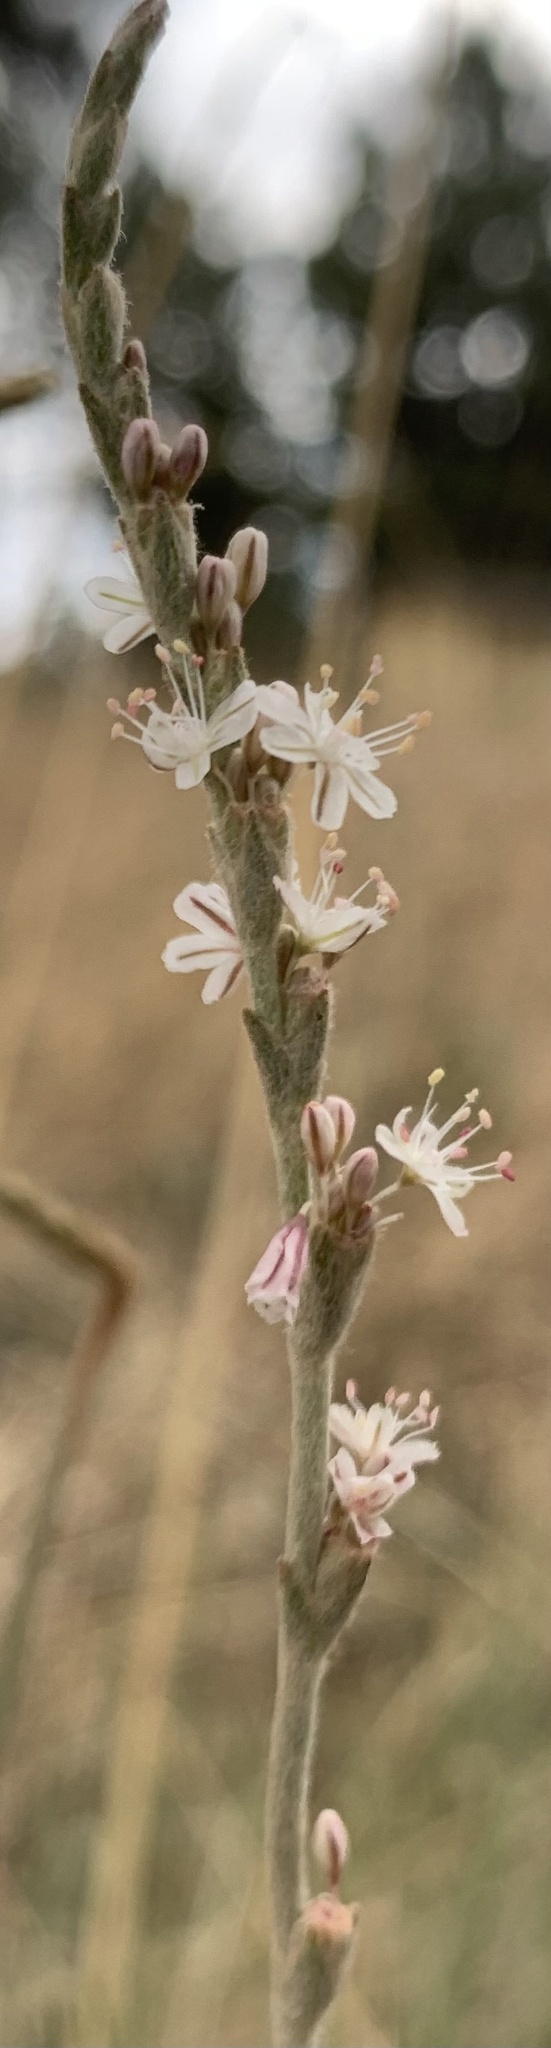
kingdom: Plantae
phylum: Tracheophyta
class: Magnoliopsida
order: Caryophyllales
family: Polygonaceae
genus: Eriogonum
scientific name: Eriogonum racemosum
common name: Redroot wild buckwheat
